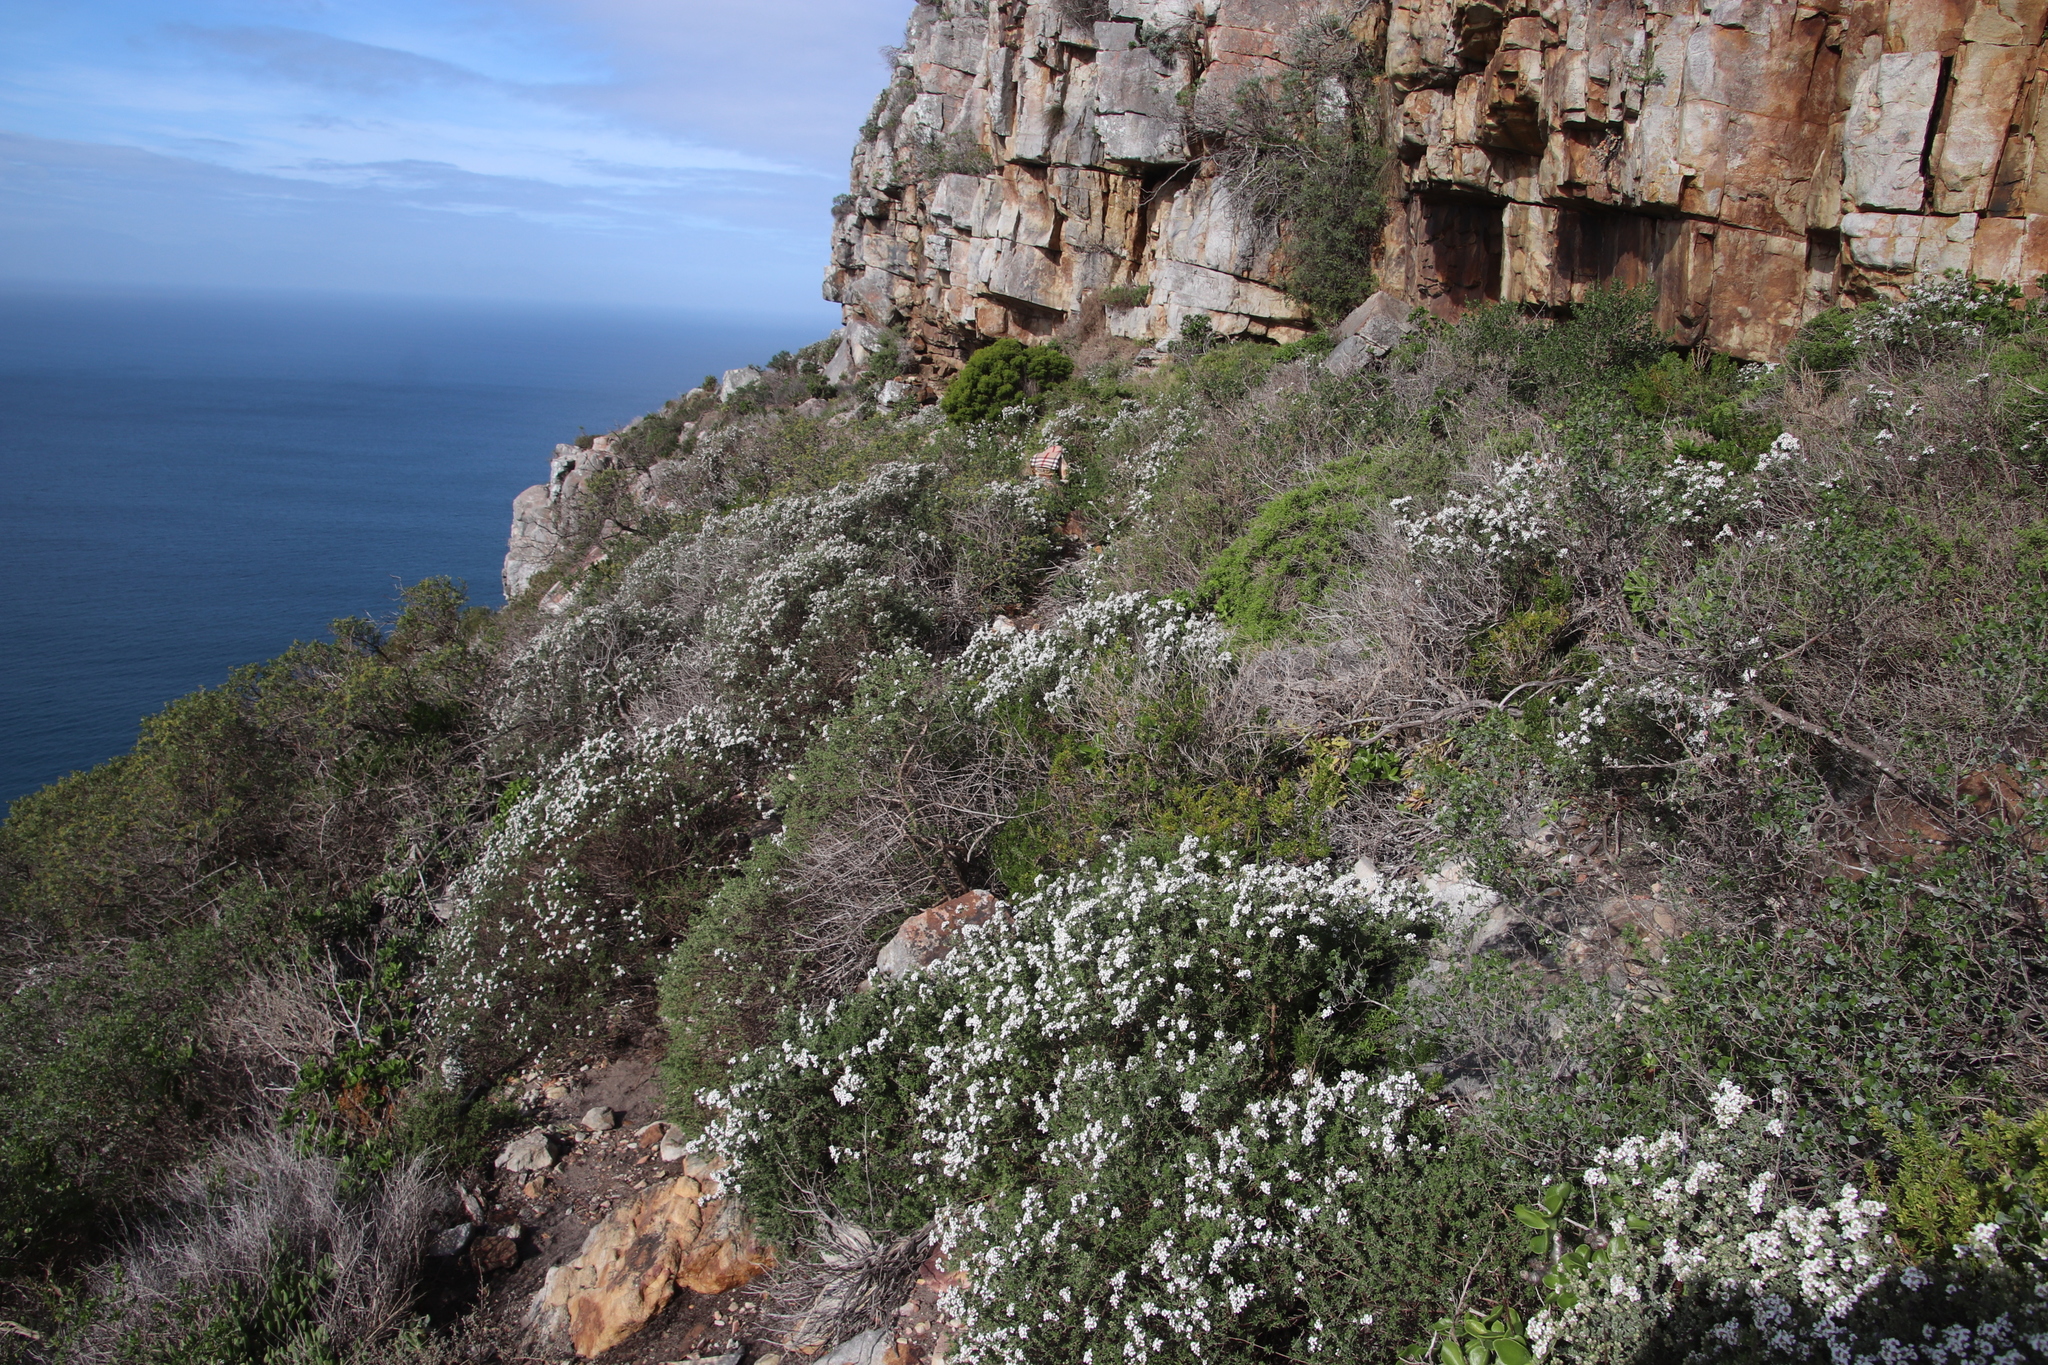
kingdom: Plantae
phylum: Tracheophyta
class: Magnoliopsida
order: Asterales
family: Asteraceae
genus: Eriocephalus
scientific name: Eriocephalus africanus
